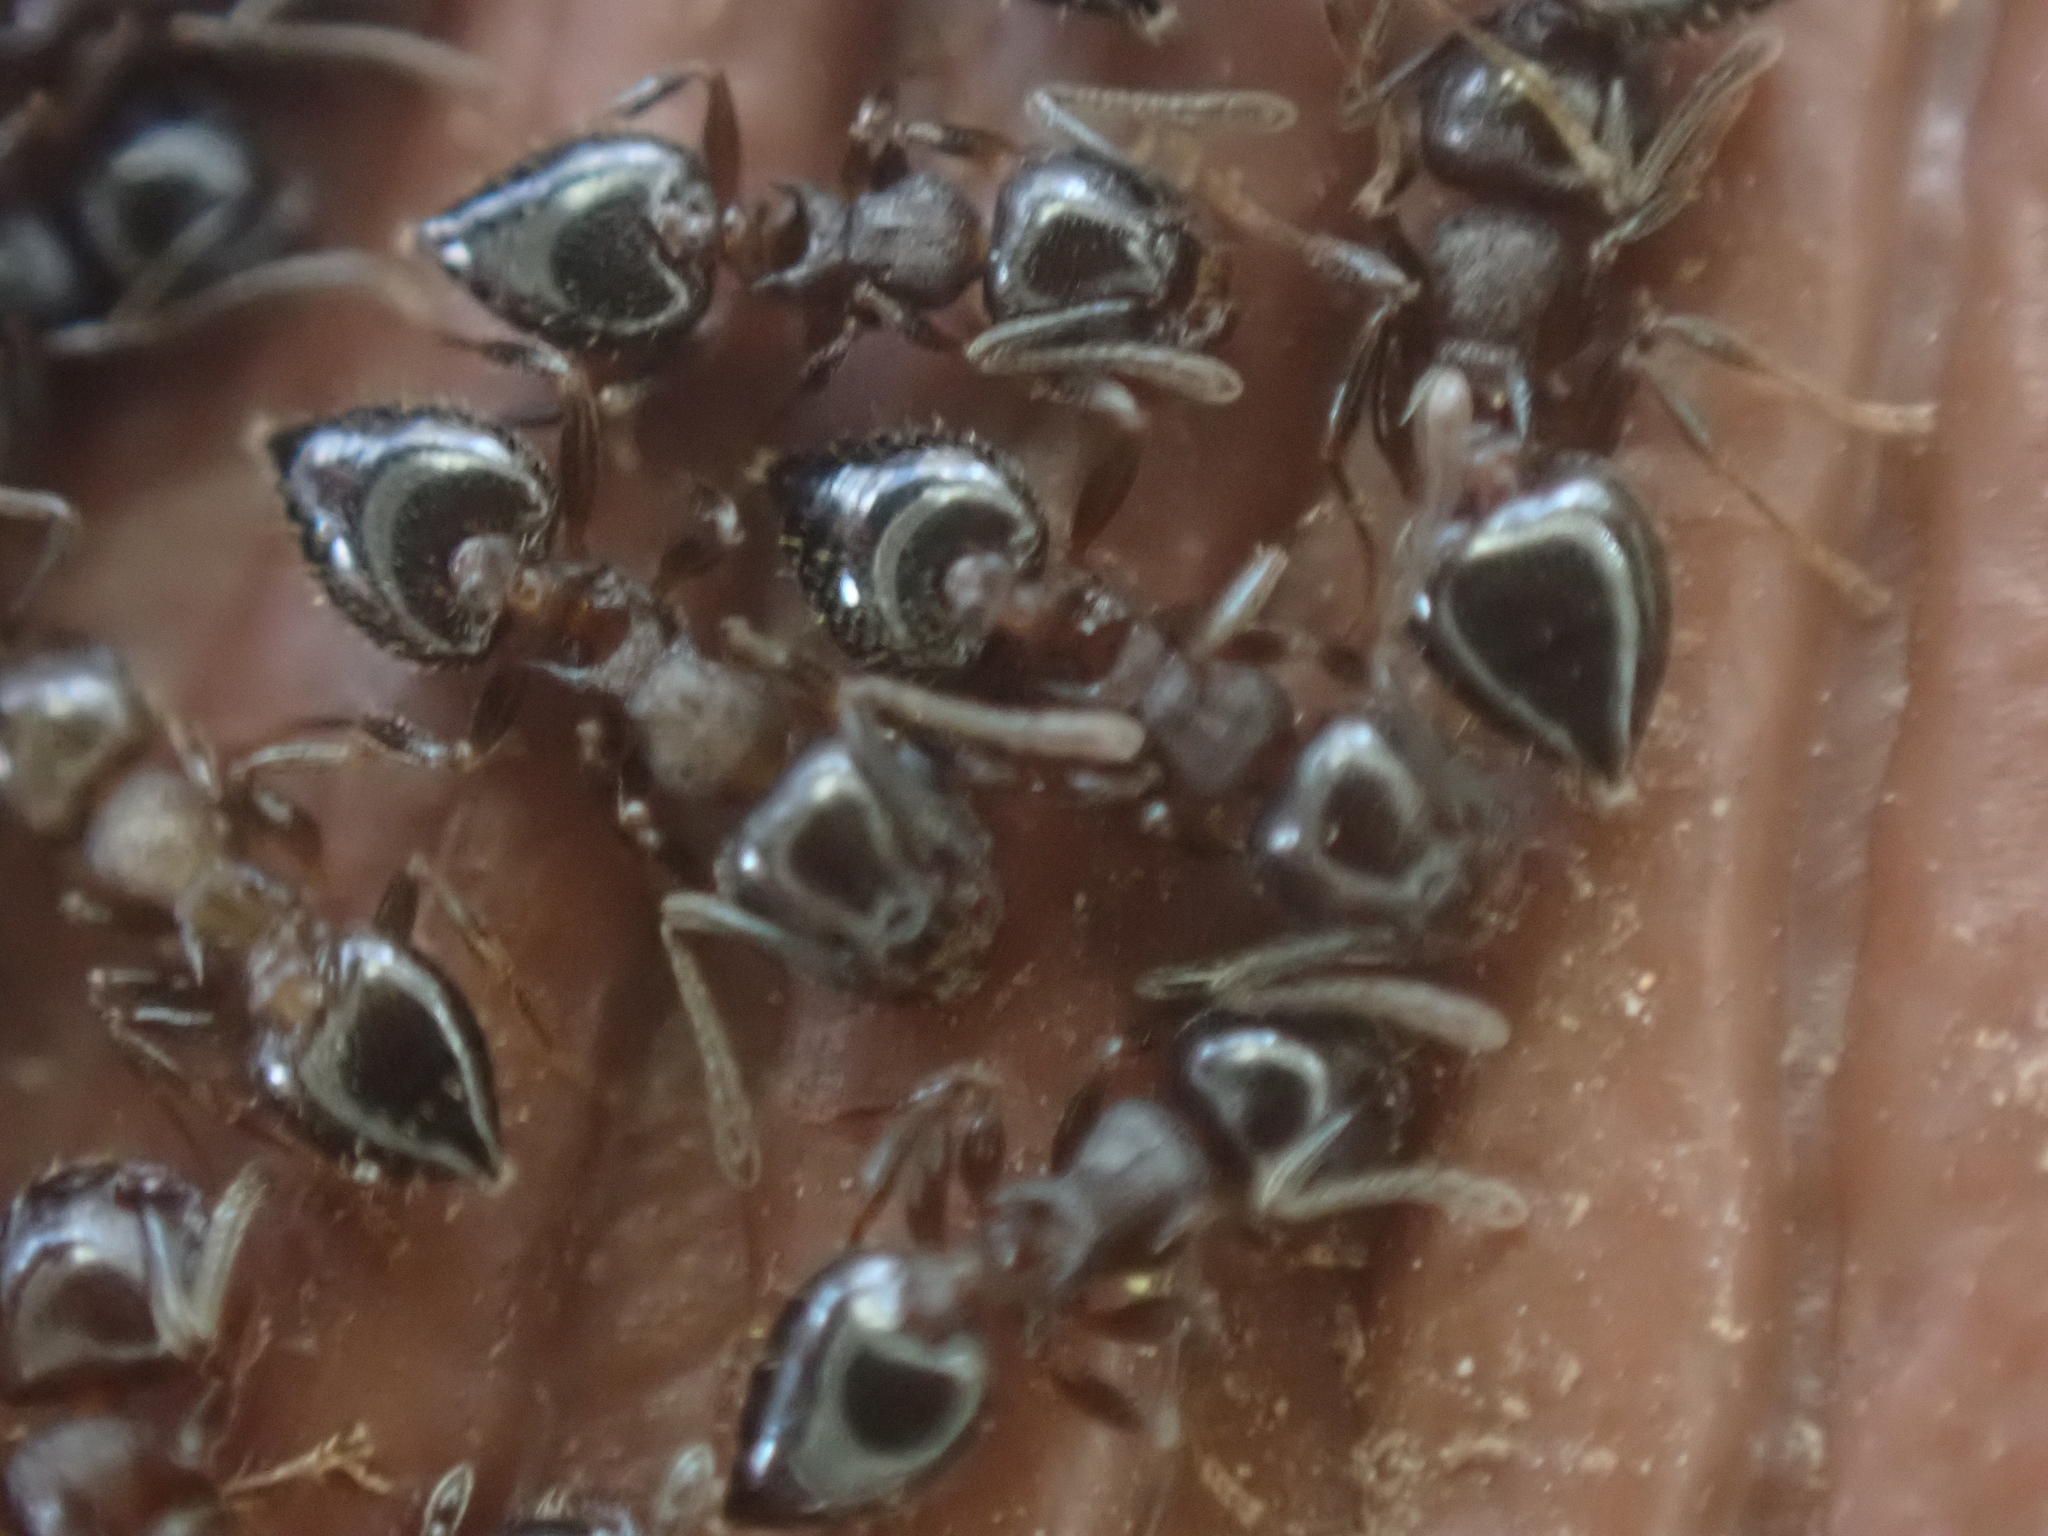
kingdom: Animalia
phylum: Arthropoda
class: Insecta
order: Hymenoptera
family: Formicidae
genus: Crematogaster
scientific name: Crematogaster cerasi
